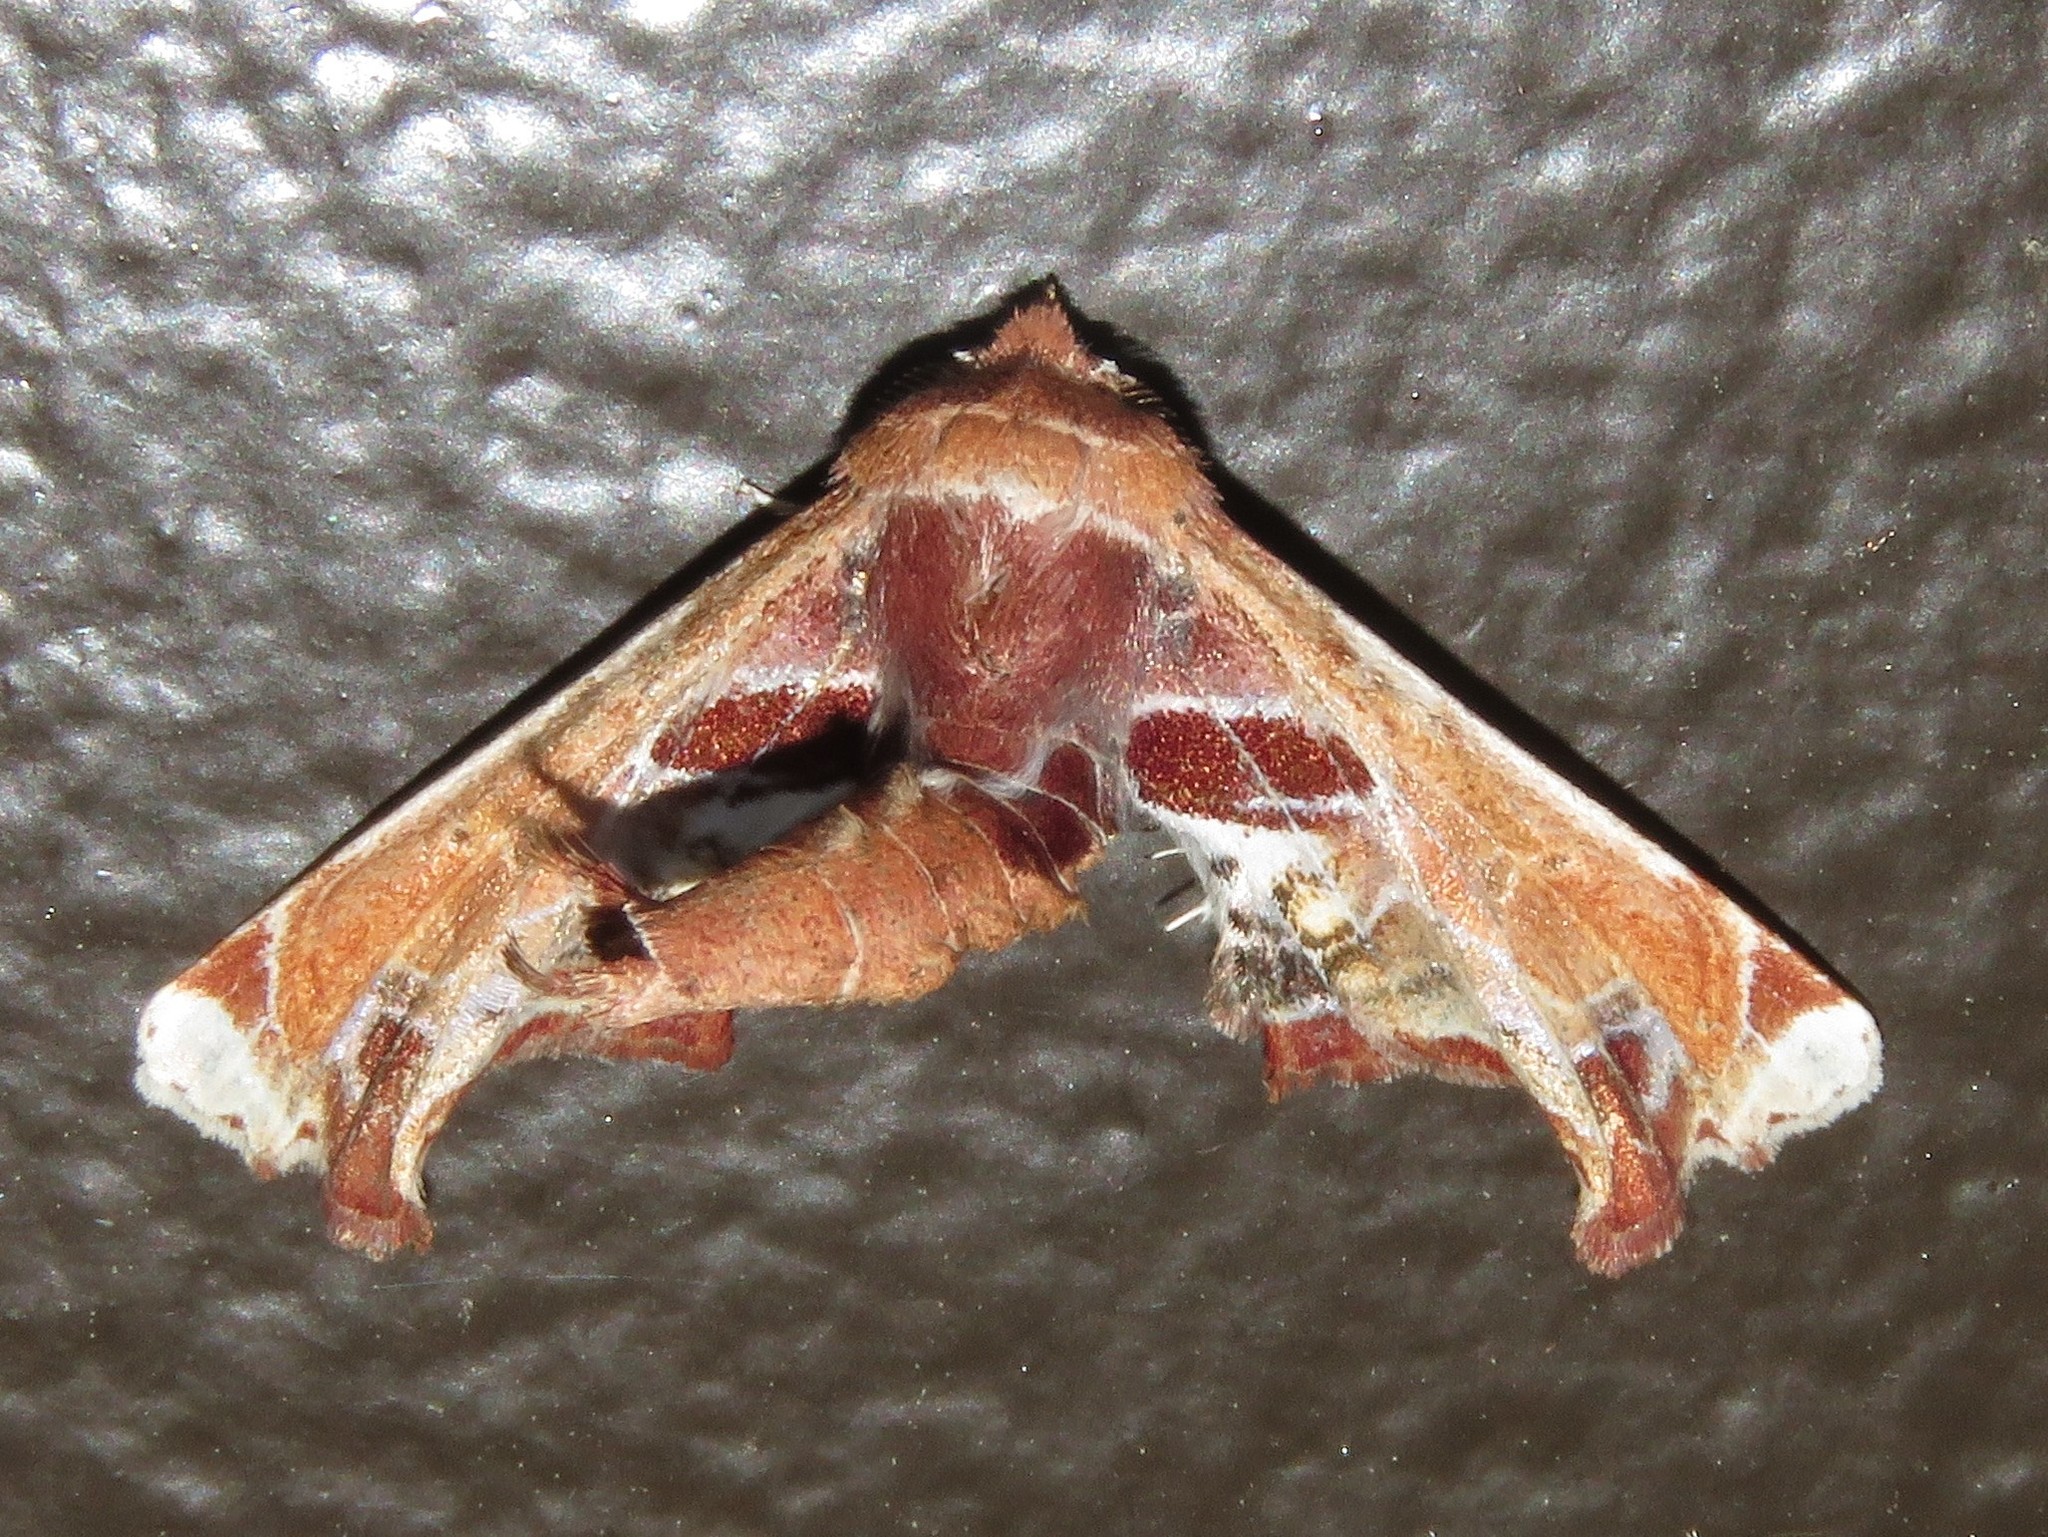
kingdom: Animalia
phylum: Arthropoda
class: Insecta
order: Lepidoptera
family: Euteliidae
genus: Eutelia
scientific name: Eutelia pulcherrimus
